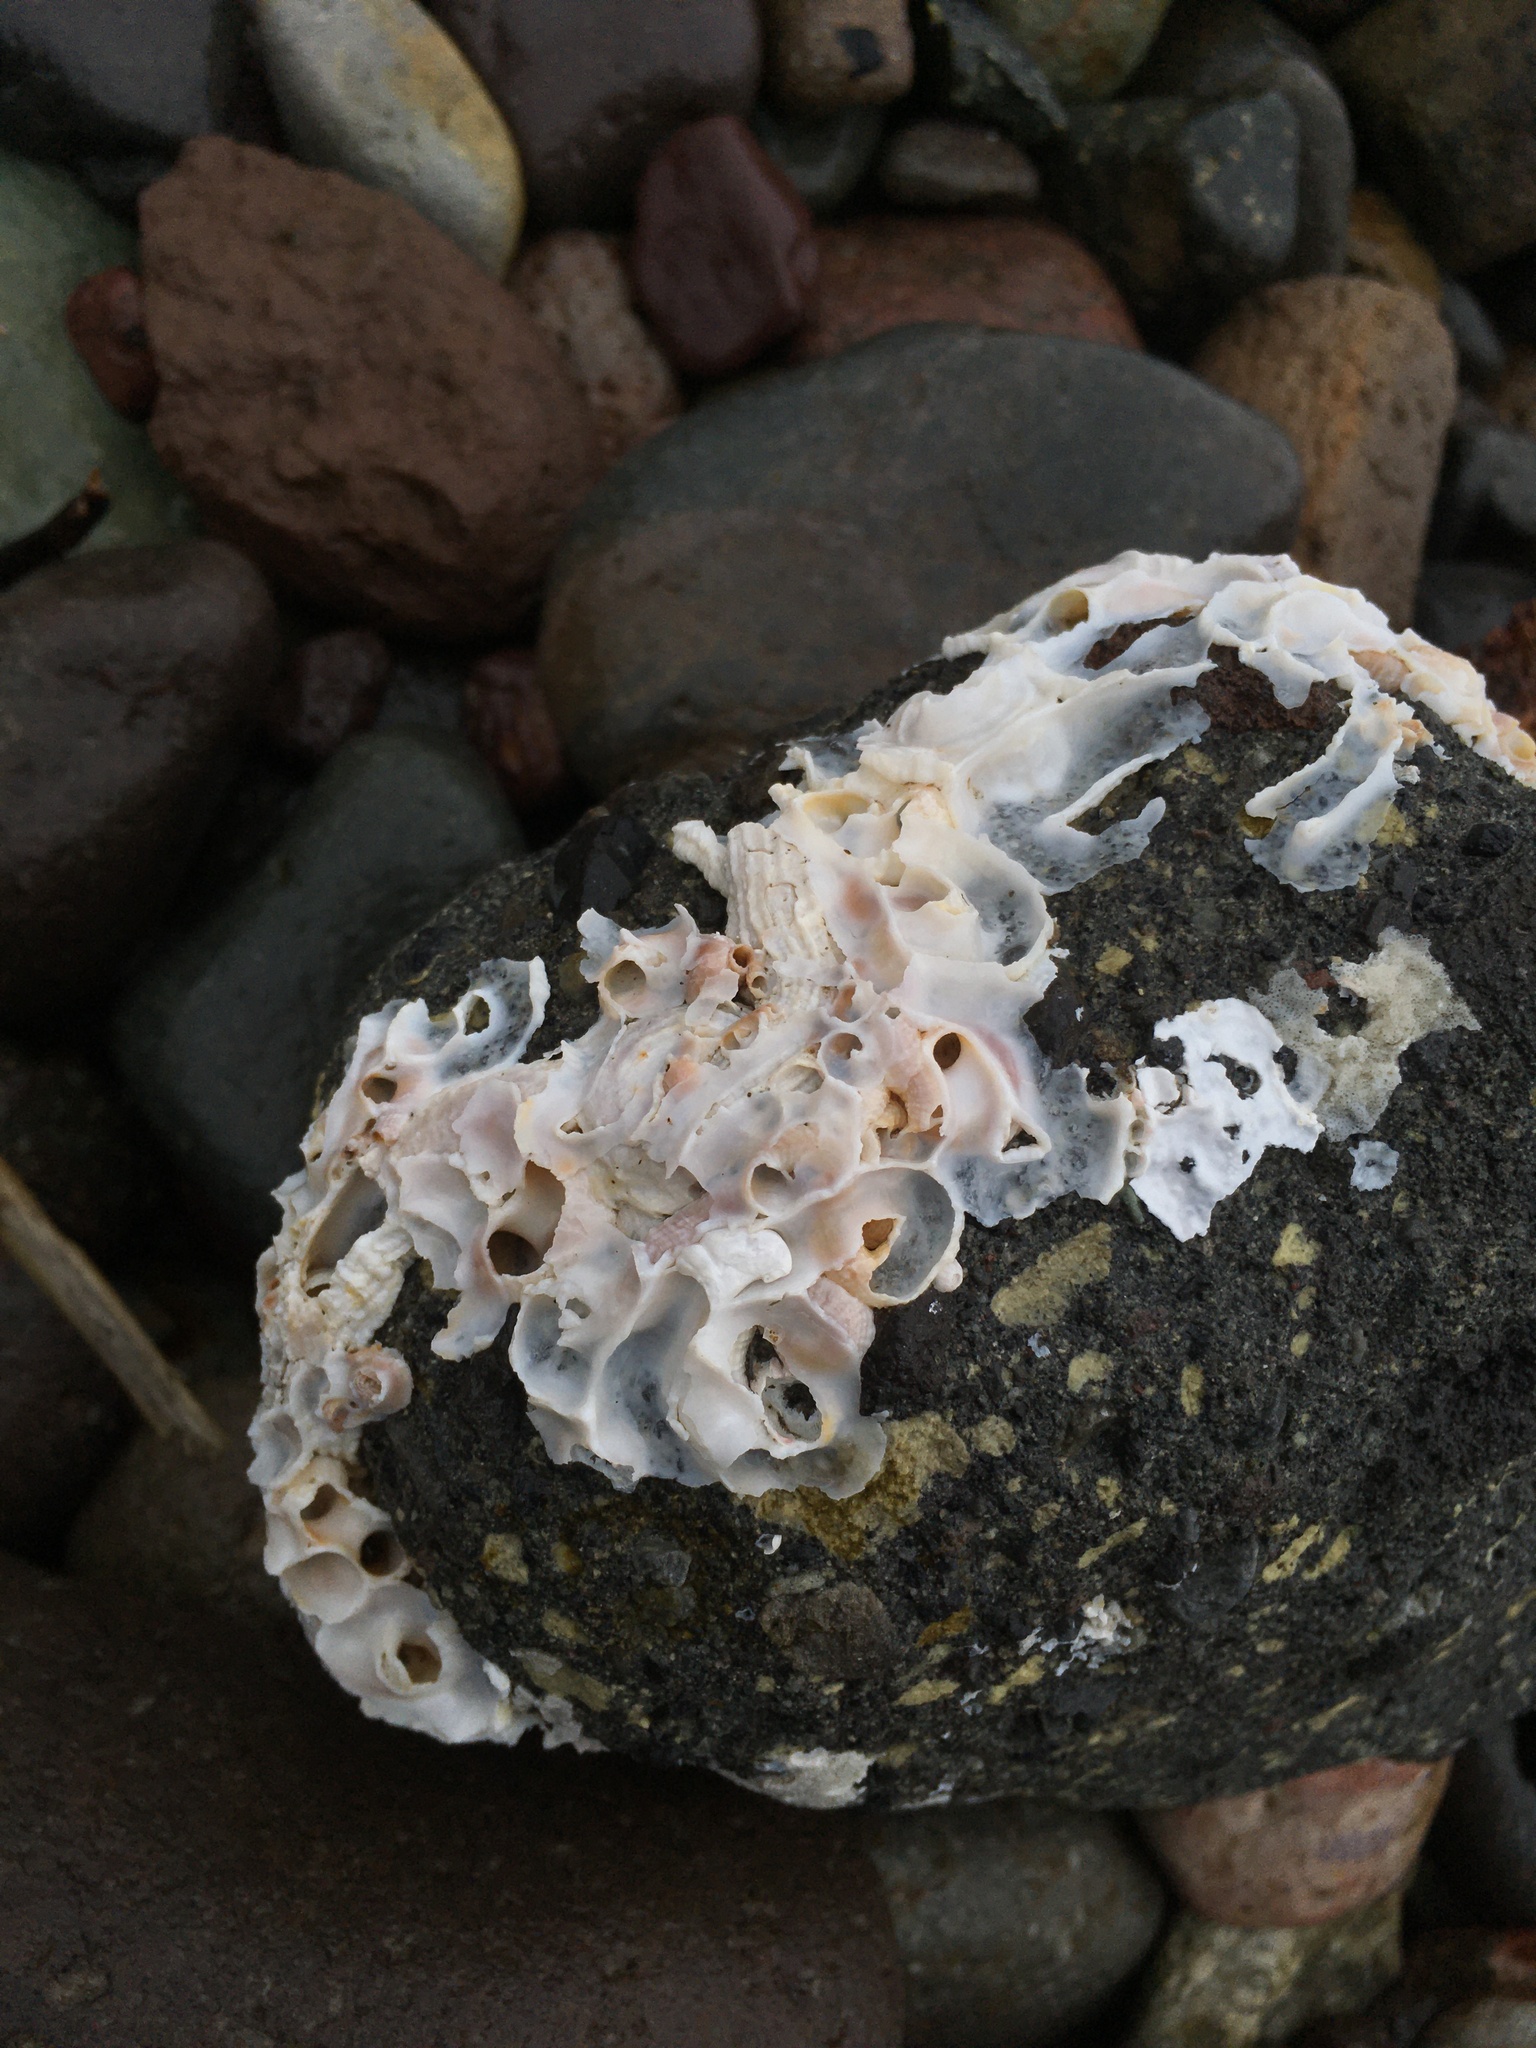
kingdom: Animalia
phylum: Mollusca
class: Gastropoda
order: Littorinimorpha
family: Vermetidae
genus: Thylacodes
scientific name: Thylacodes squamigerus
